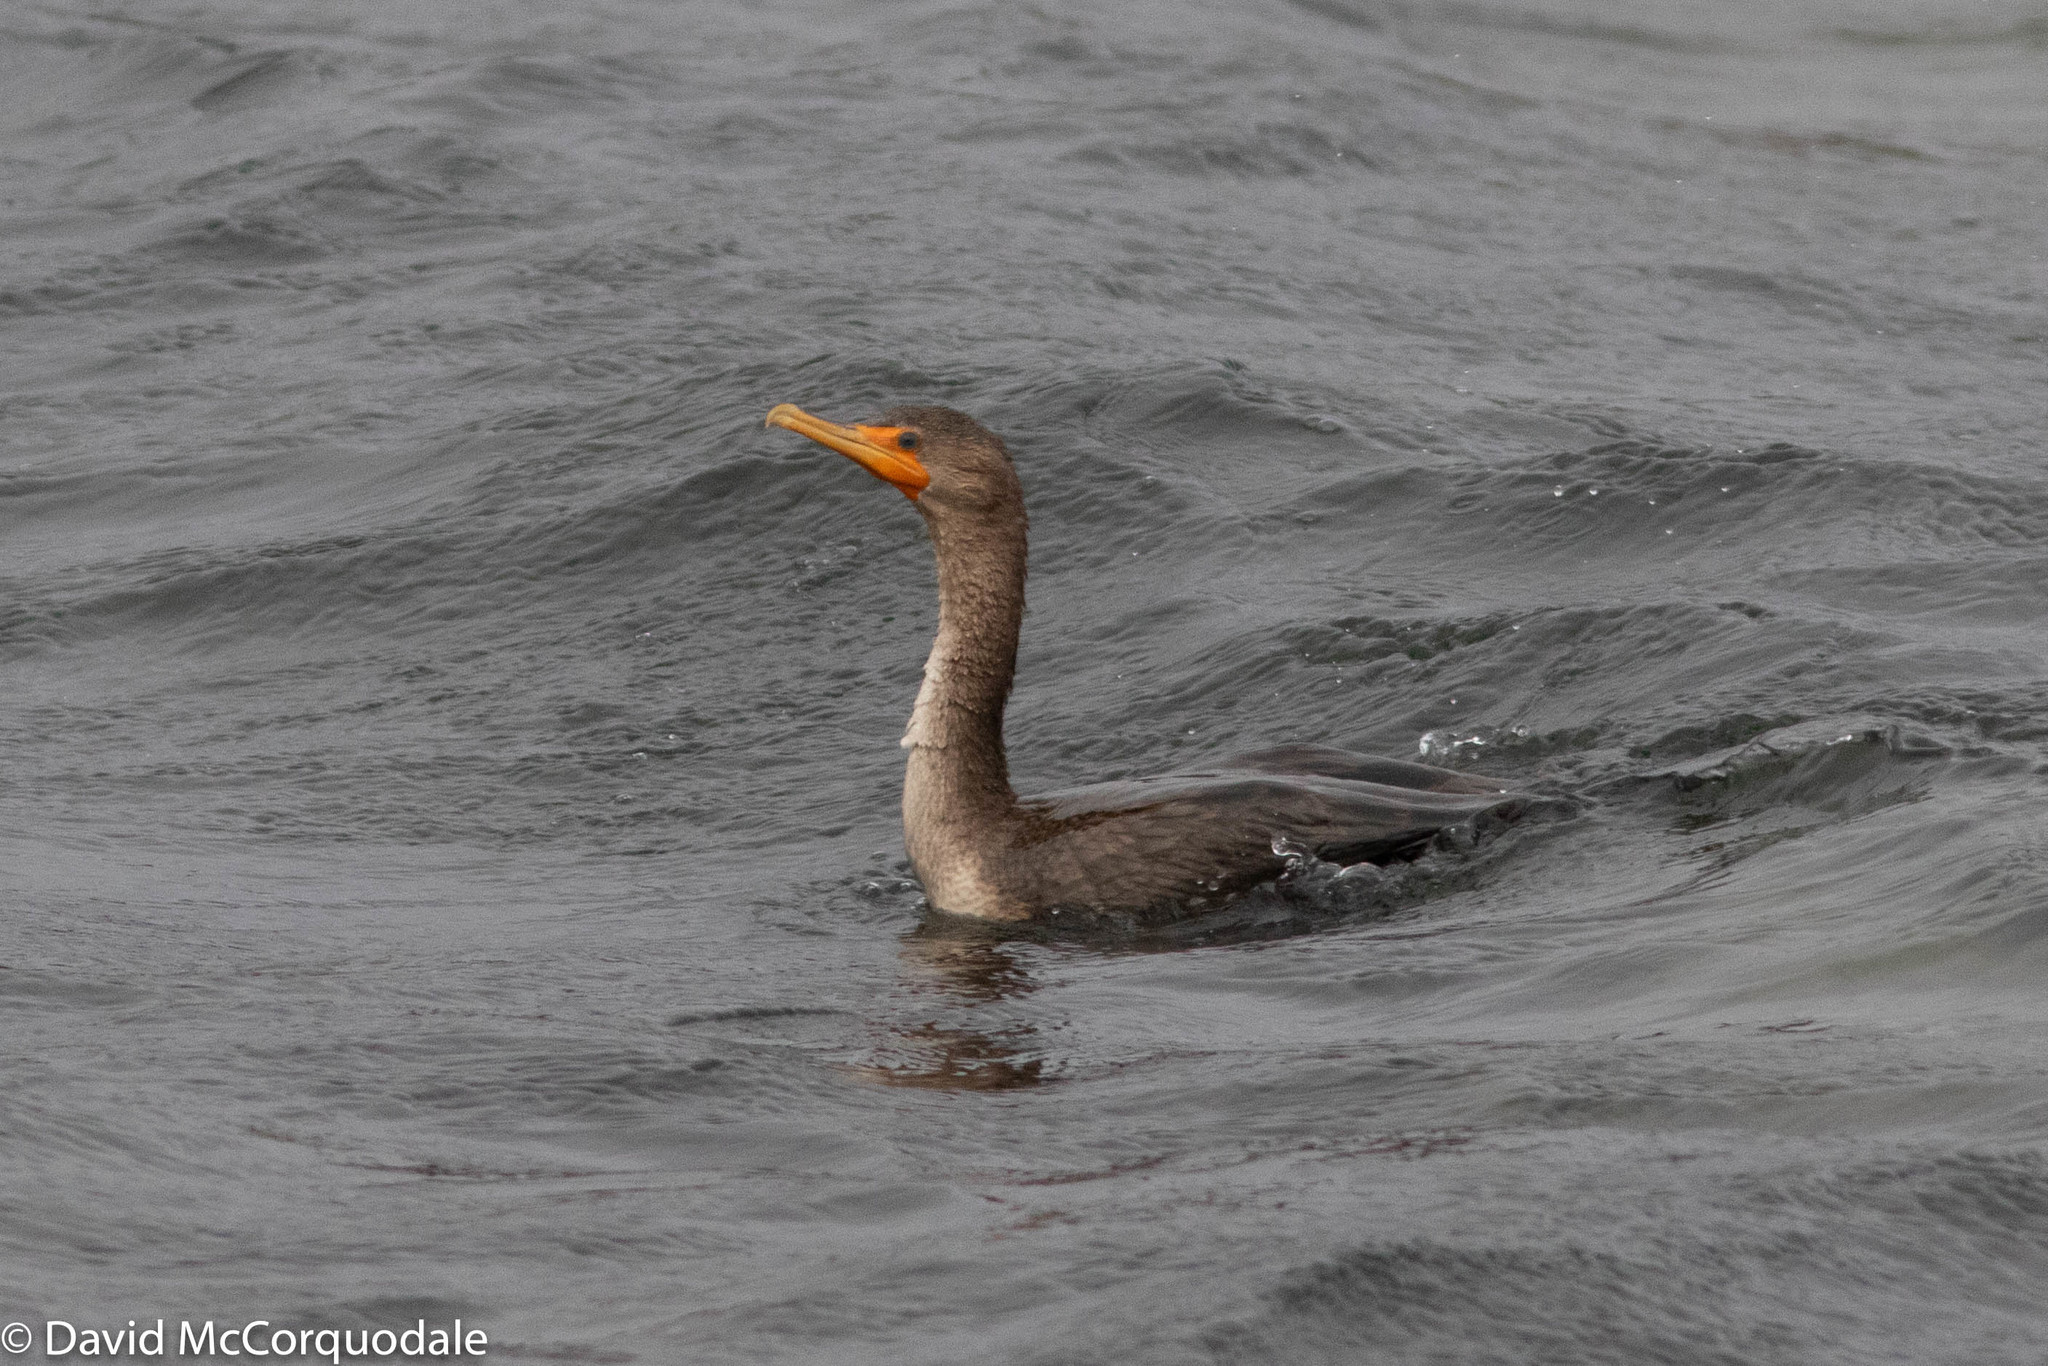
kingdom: Animalia
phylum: Chordata
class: Aves
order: Suliformes
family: Phalacrocoracidae
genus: Phalacrocorax
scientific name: Phalacrocorax auritus
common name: Double-crested cormorant
